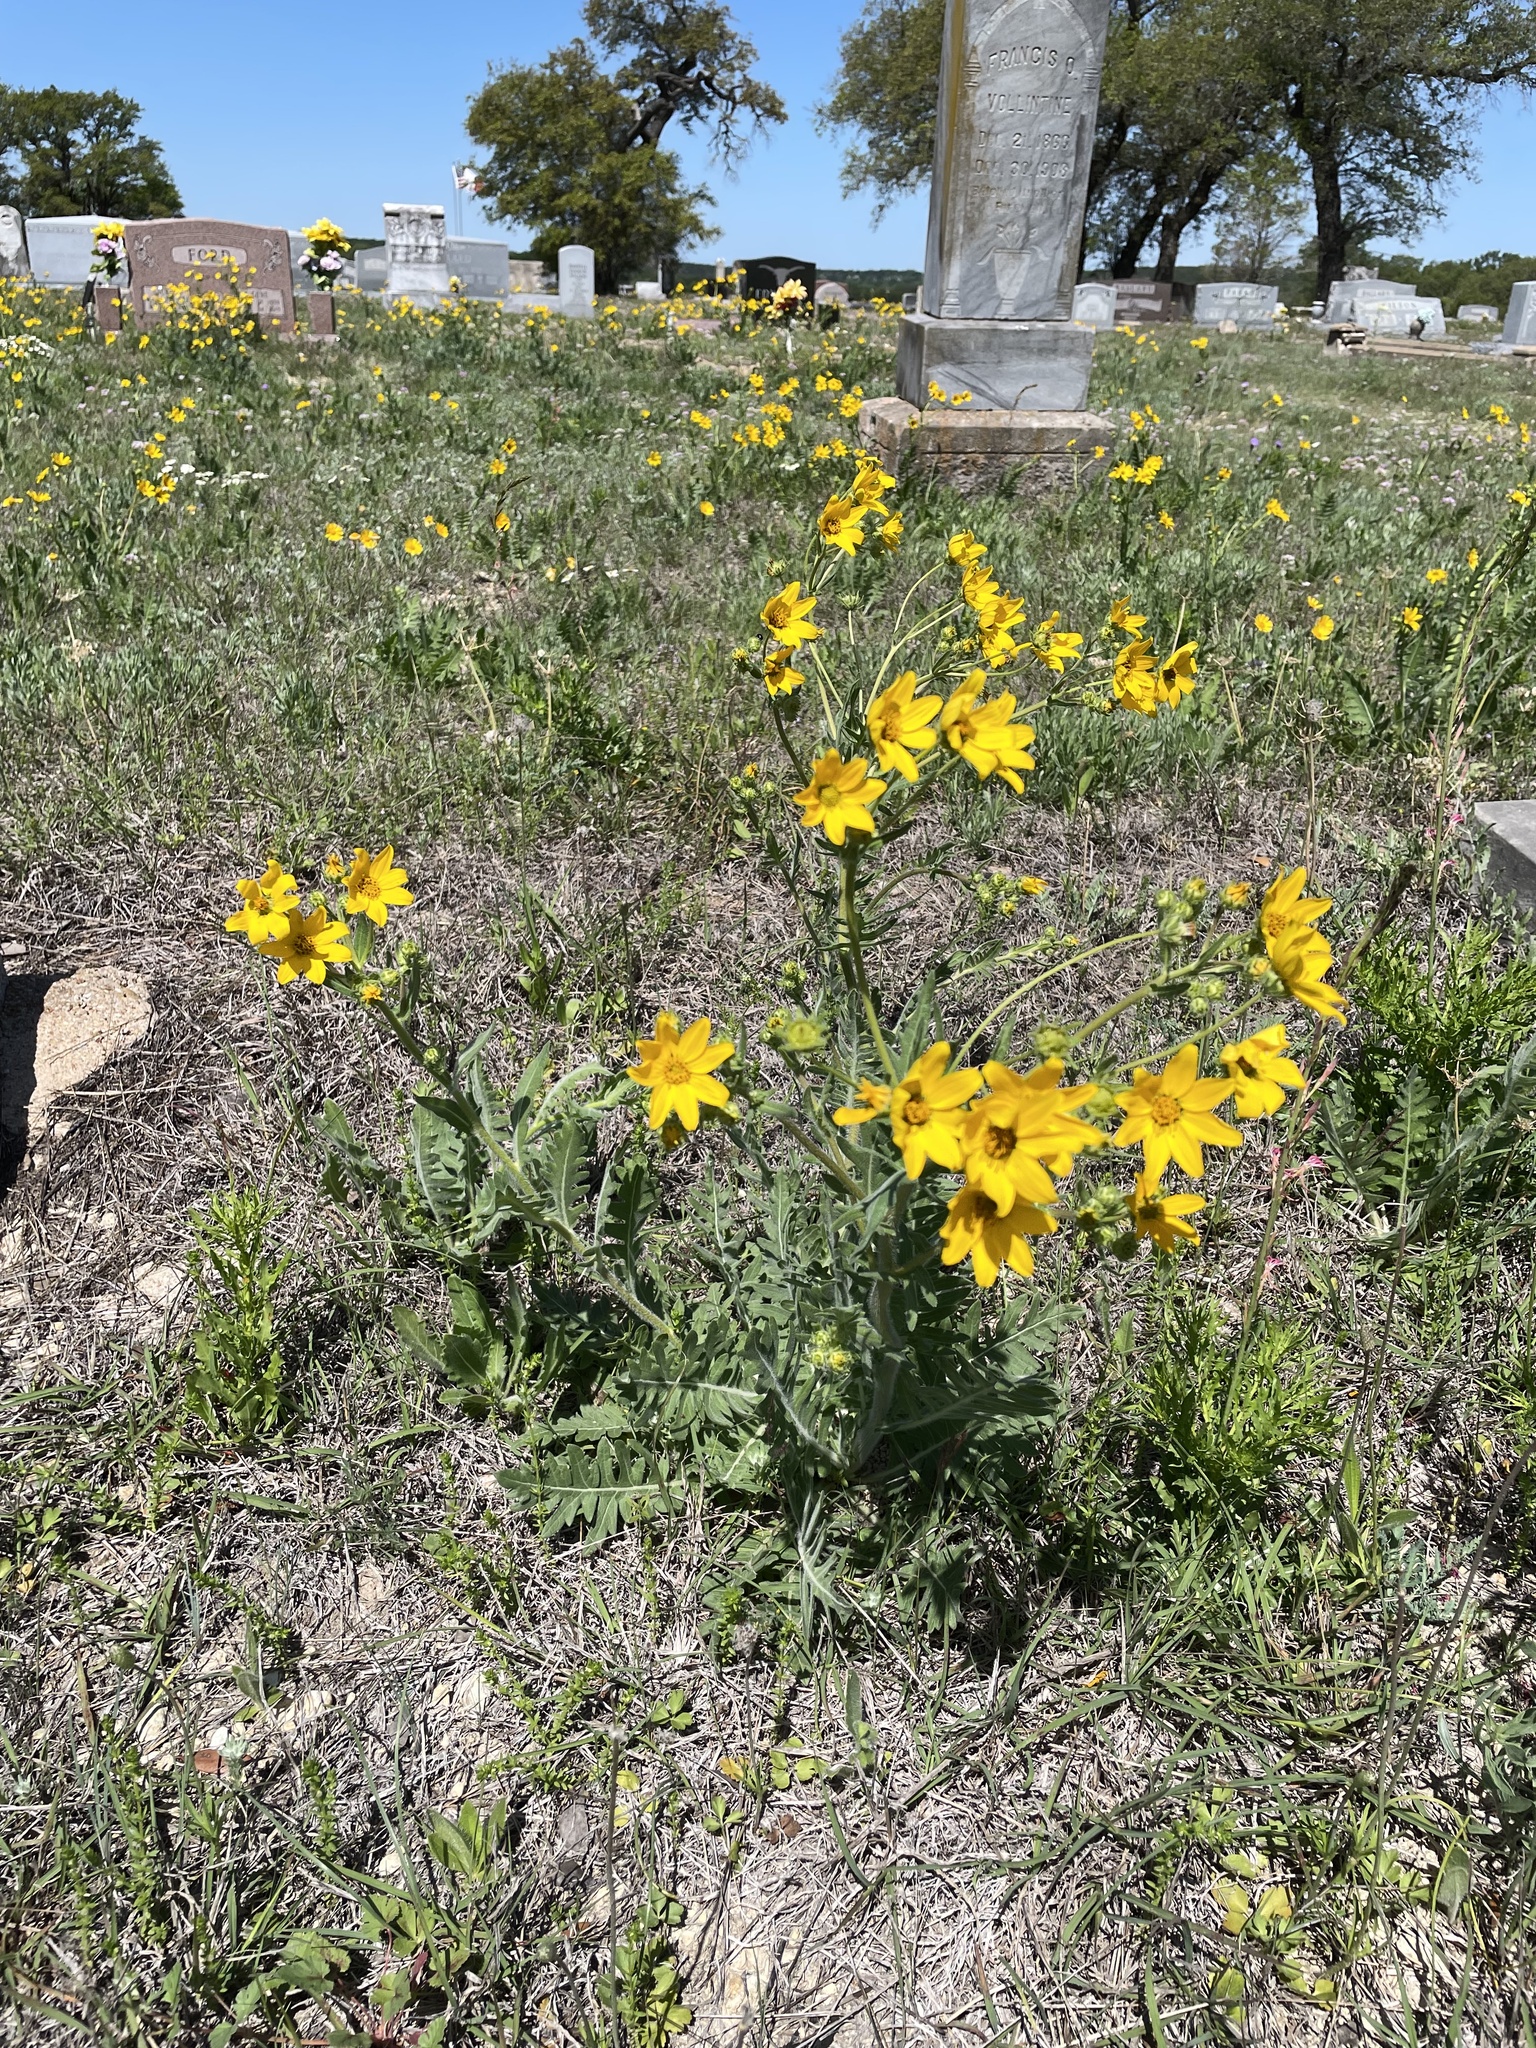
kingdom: Plantae
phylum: Tracheophyta
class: Magnoliopsida
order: Asterales
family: Asteraceae
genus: Engelmannia
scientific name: Engelmannia peristenia
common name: Engelmann's daisy
